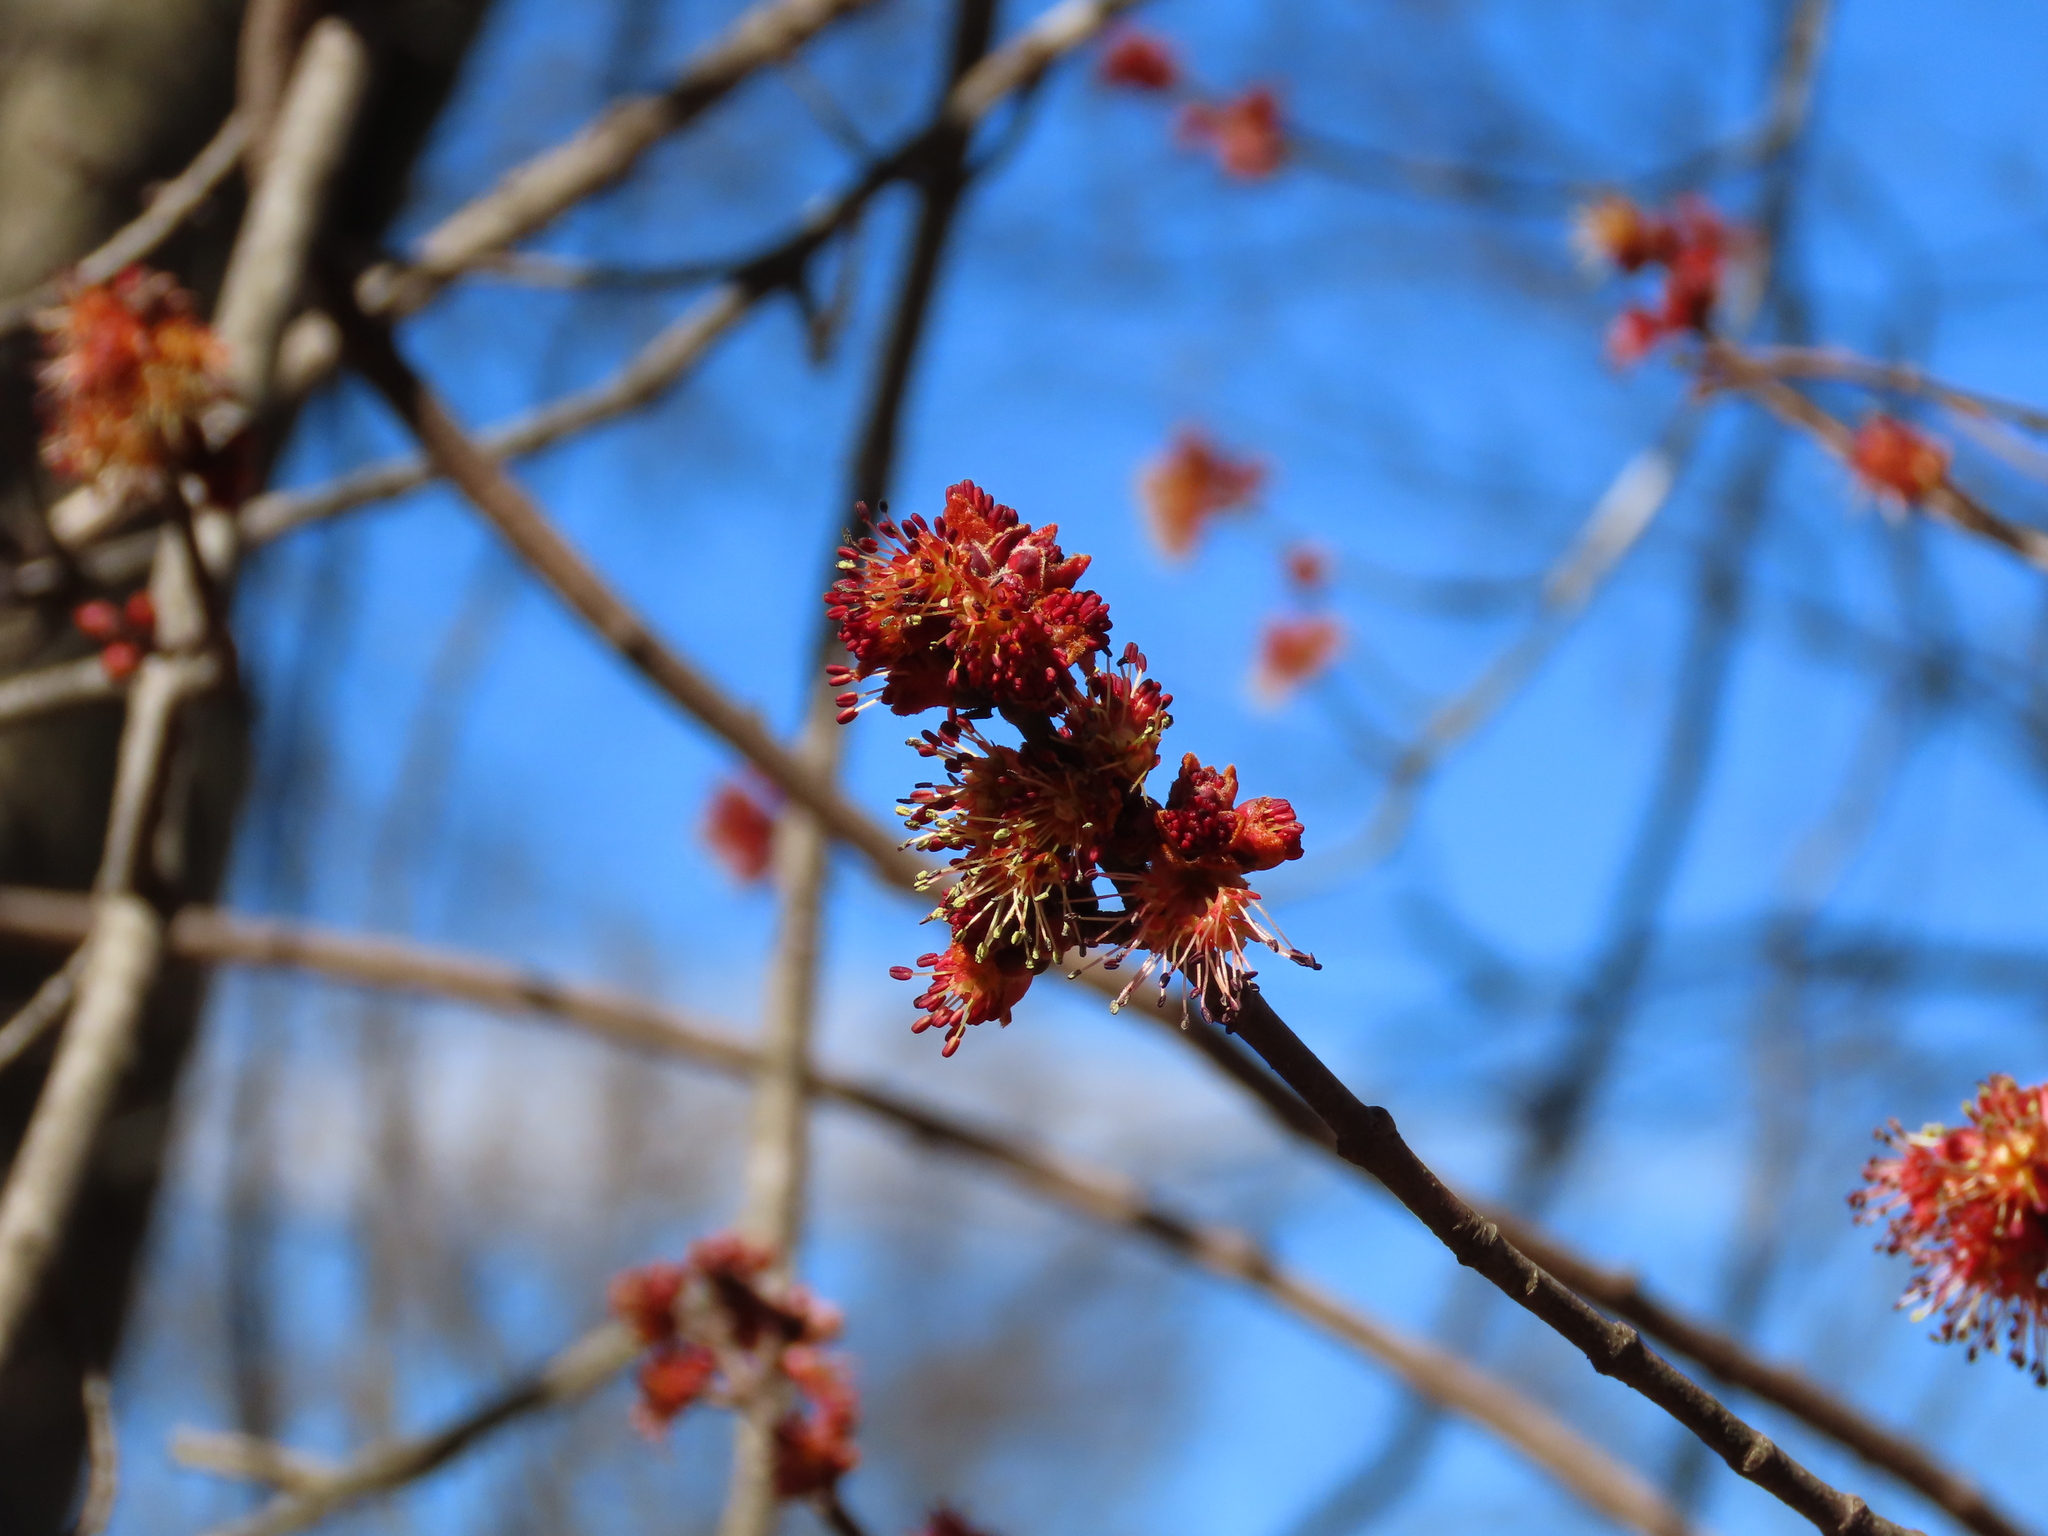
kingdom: Plantae
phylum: Tracheophyta
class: Magnoliopsida
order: Sapindales
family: Sapindaceae
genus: Acer
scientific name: Acer rubrum
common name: Red maple
